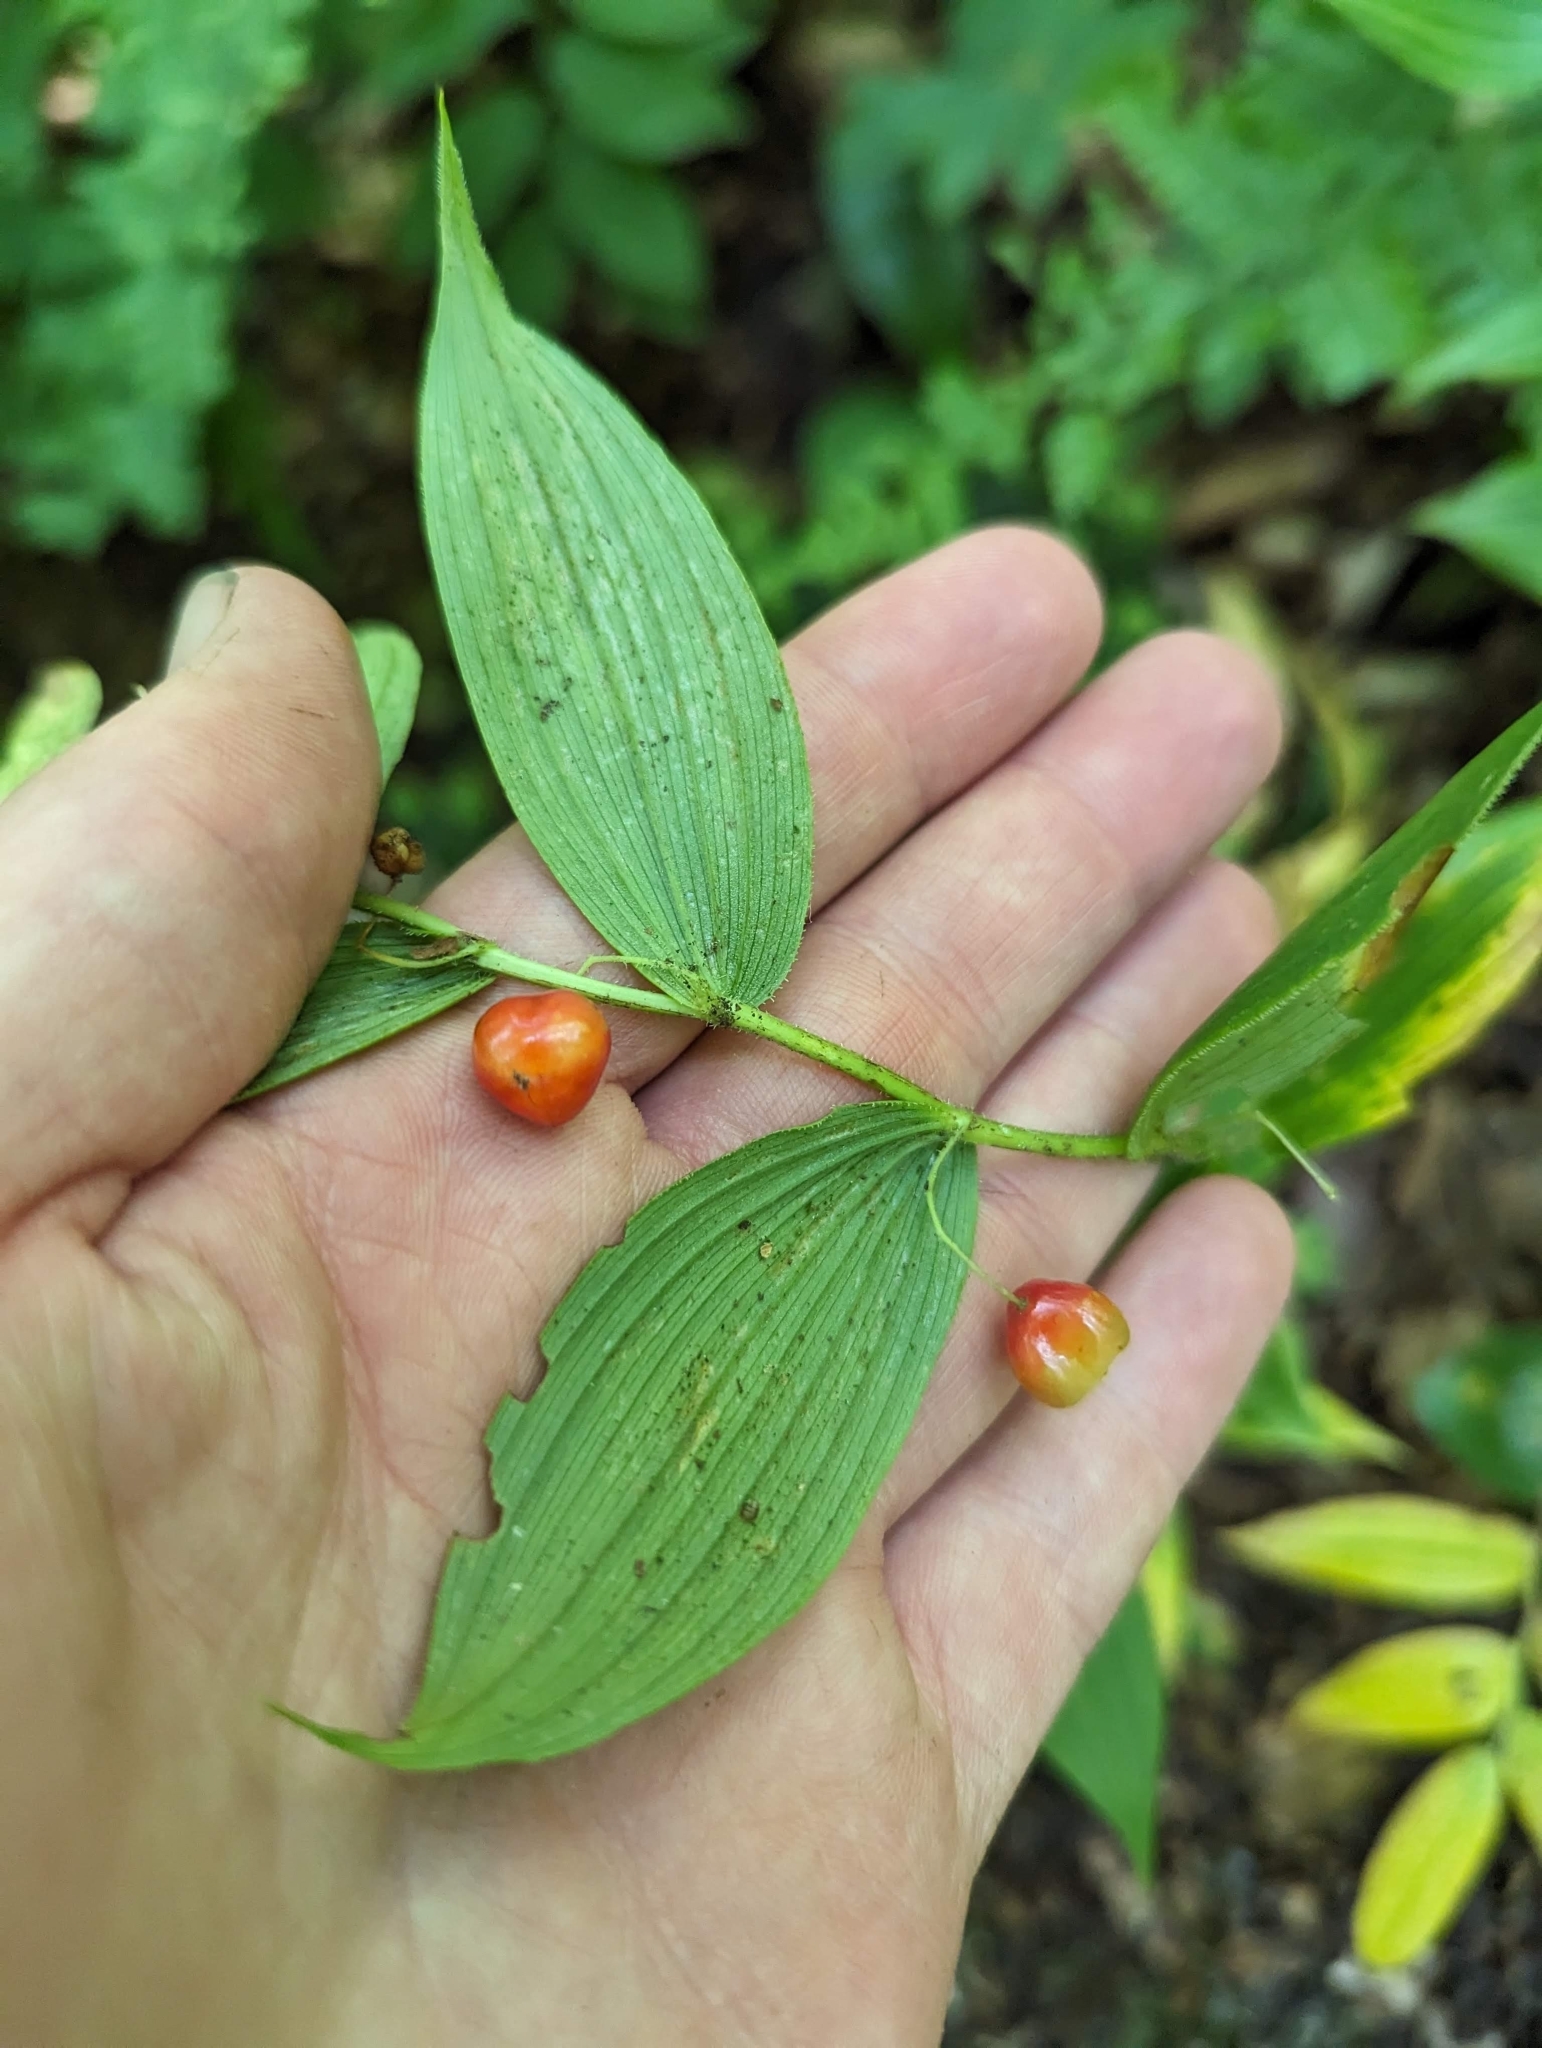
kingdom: Plantae
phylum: Tracheophyta
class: Liliopsida
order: Liliales
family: Liliaceae
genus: Streptopus
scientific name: Streptopus lanceolatus
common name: Rose mandarin
